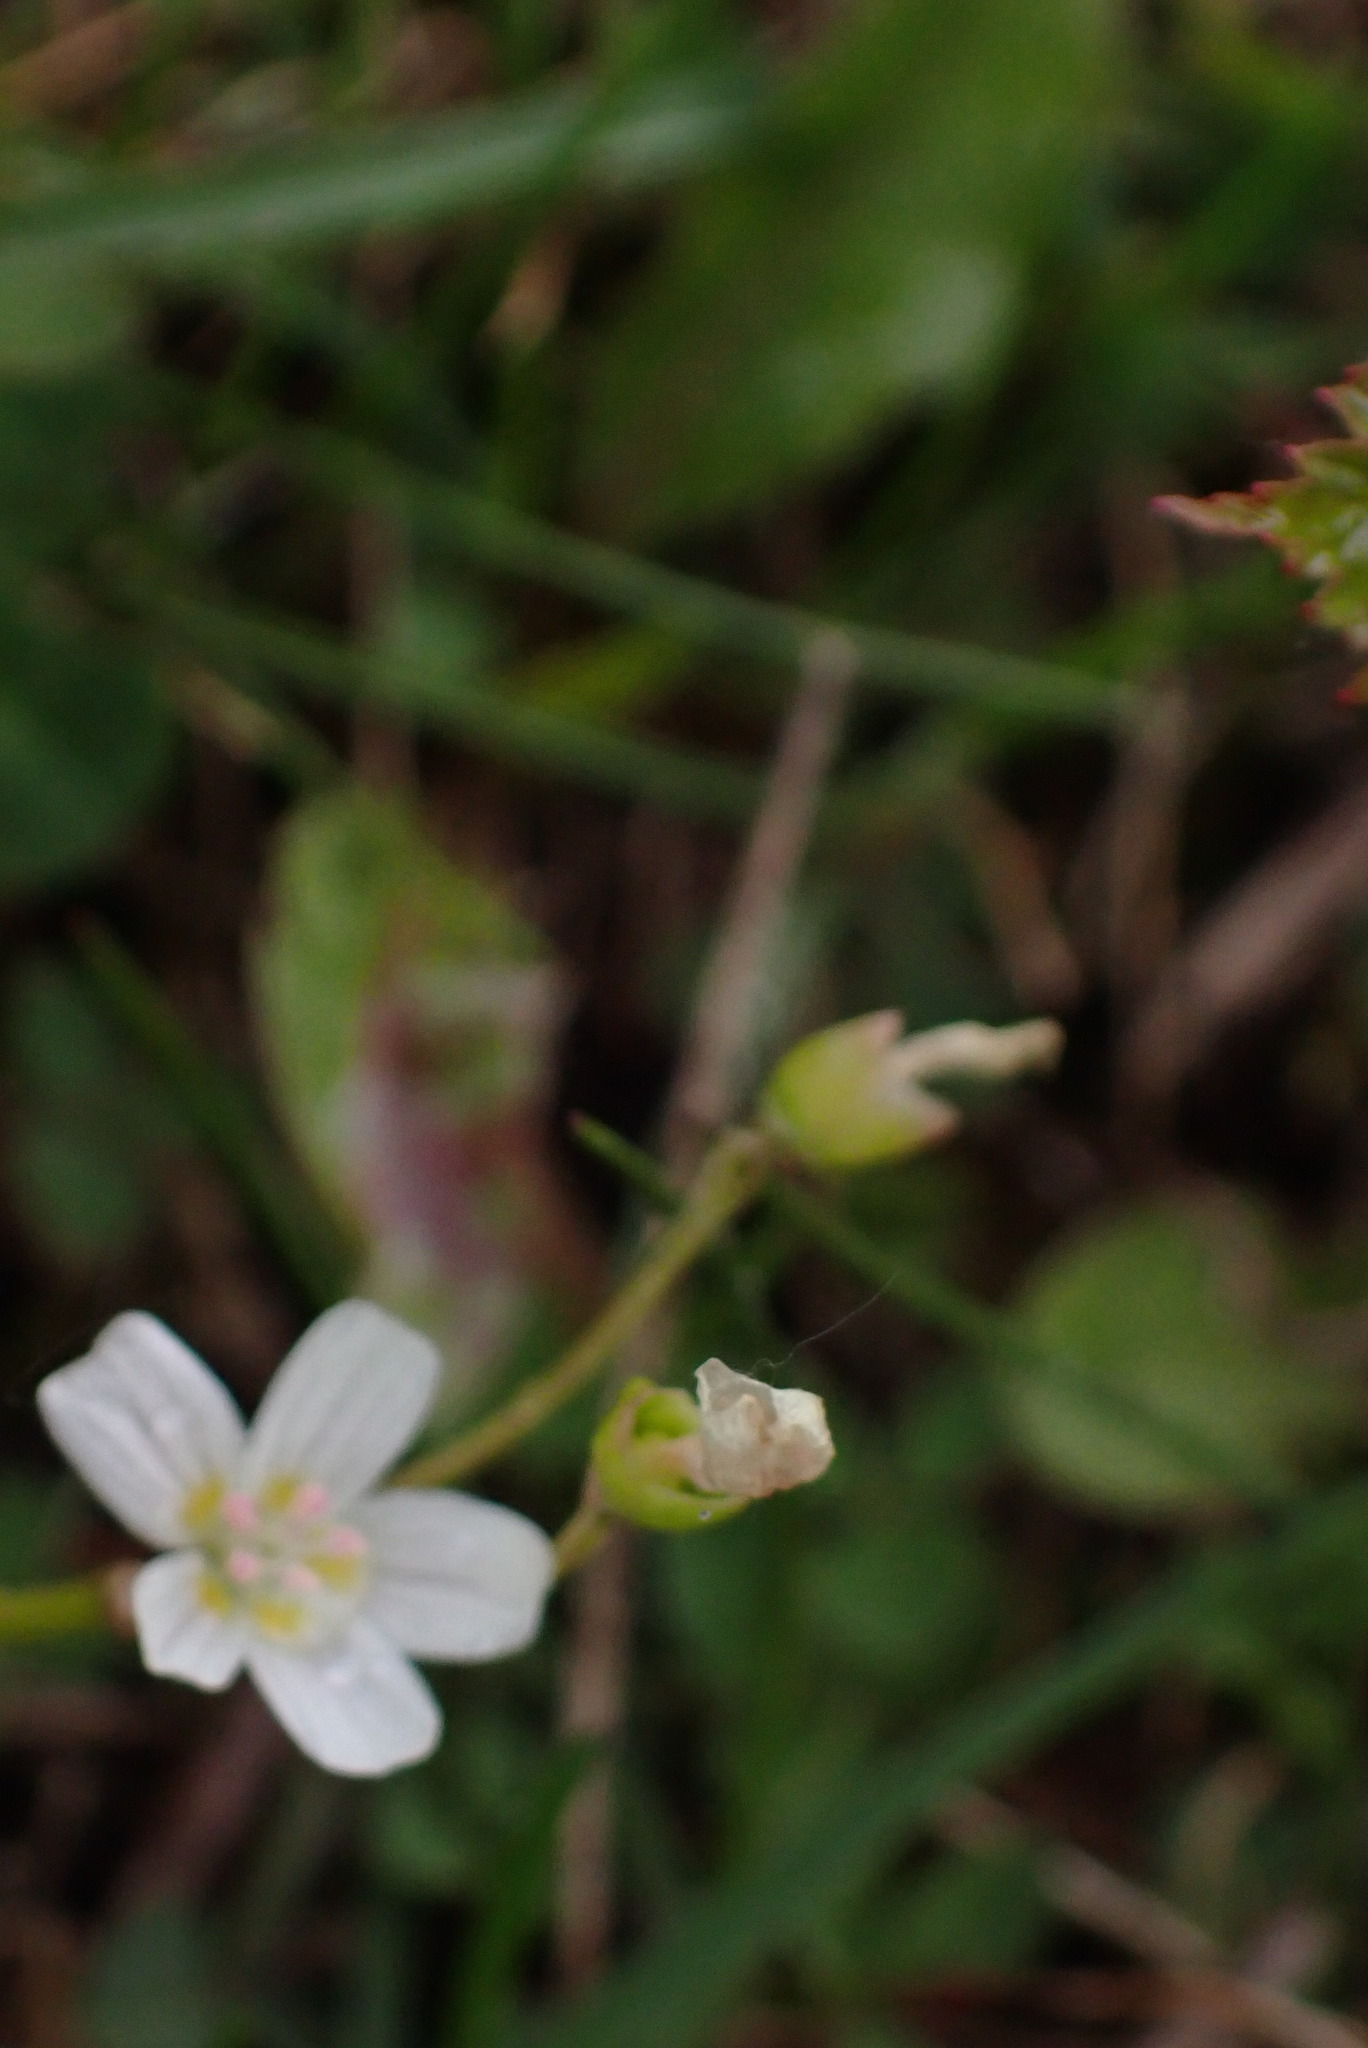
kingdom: Plantae
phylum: Tracheophyta
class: Magnoliopsida
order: Caryophyllales
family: Montiaceae
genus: Claytonia
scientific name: Claytonia lanceolata
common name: Western spring-beauty
